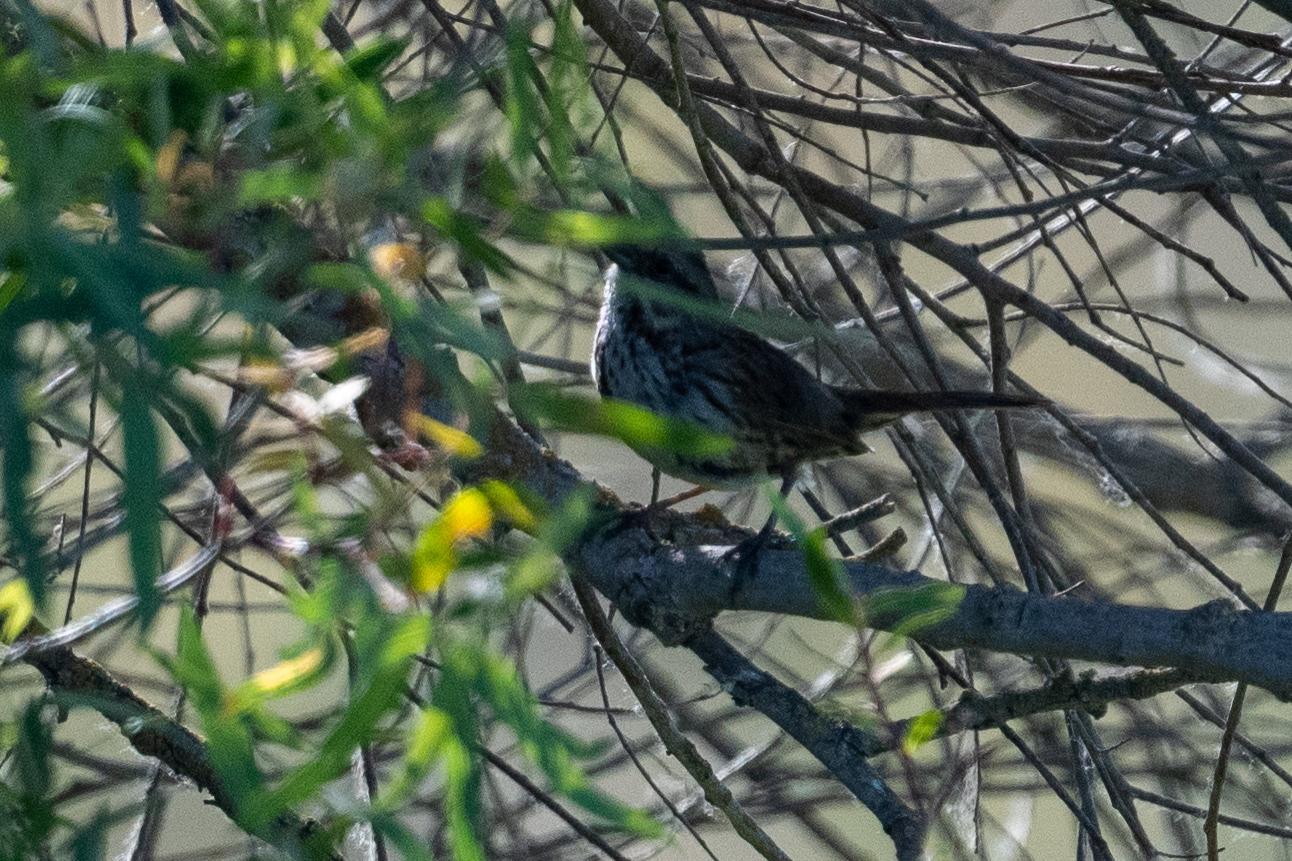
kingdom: Animalia
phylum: Chordata
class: Aves
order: Passeriformes
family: Passerellidae
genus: Melospiza
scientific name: Melospiza melodia
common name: Song sparrow
